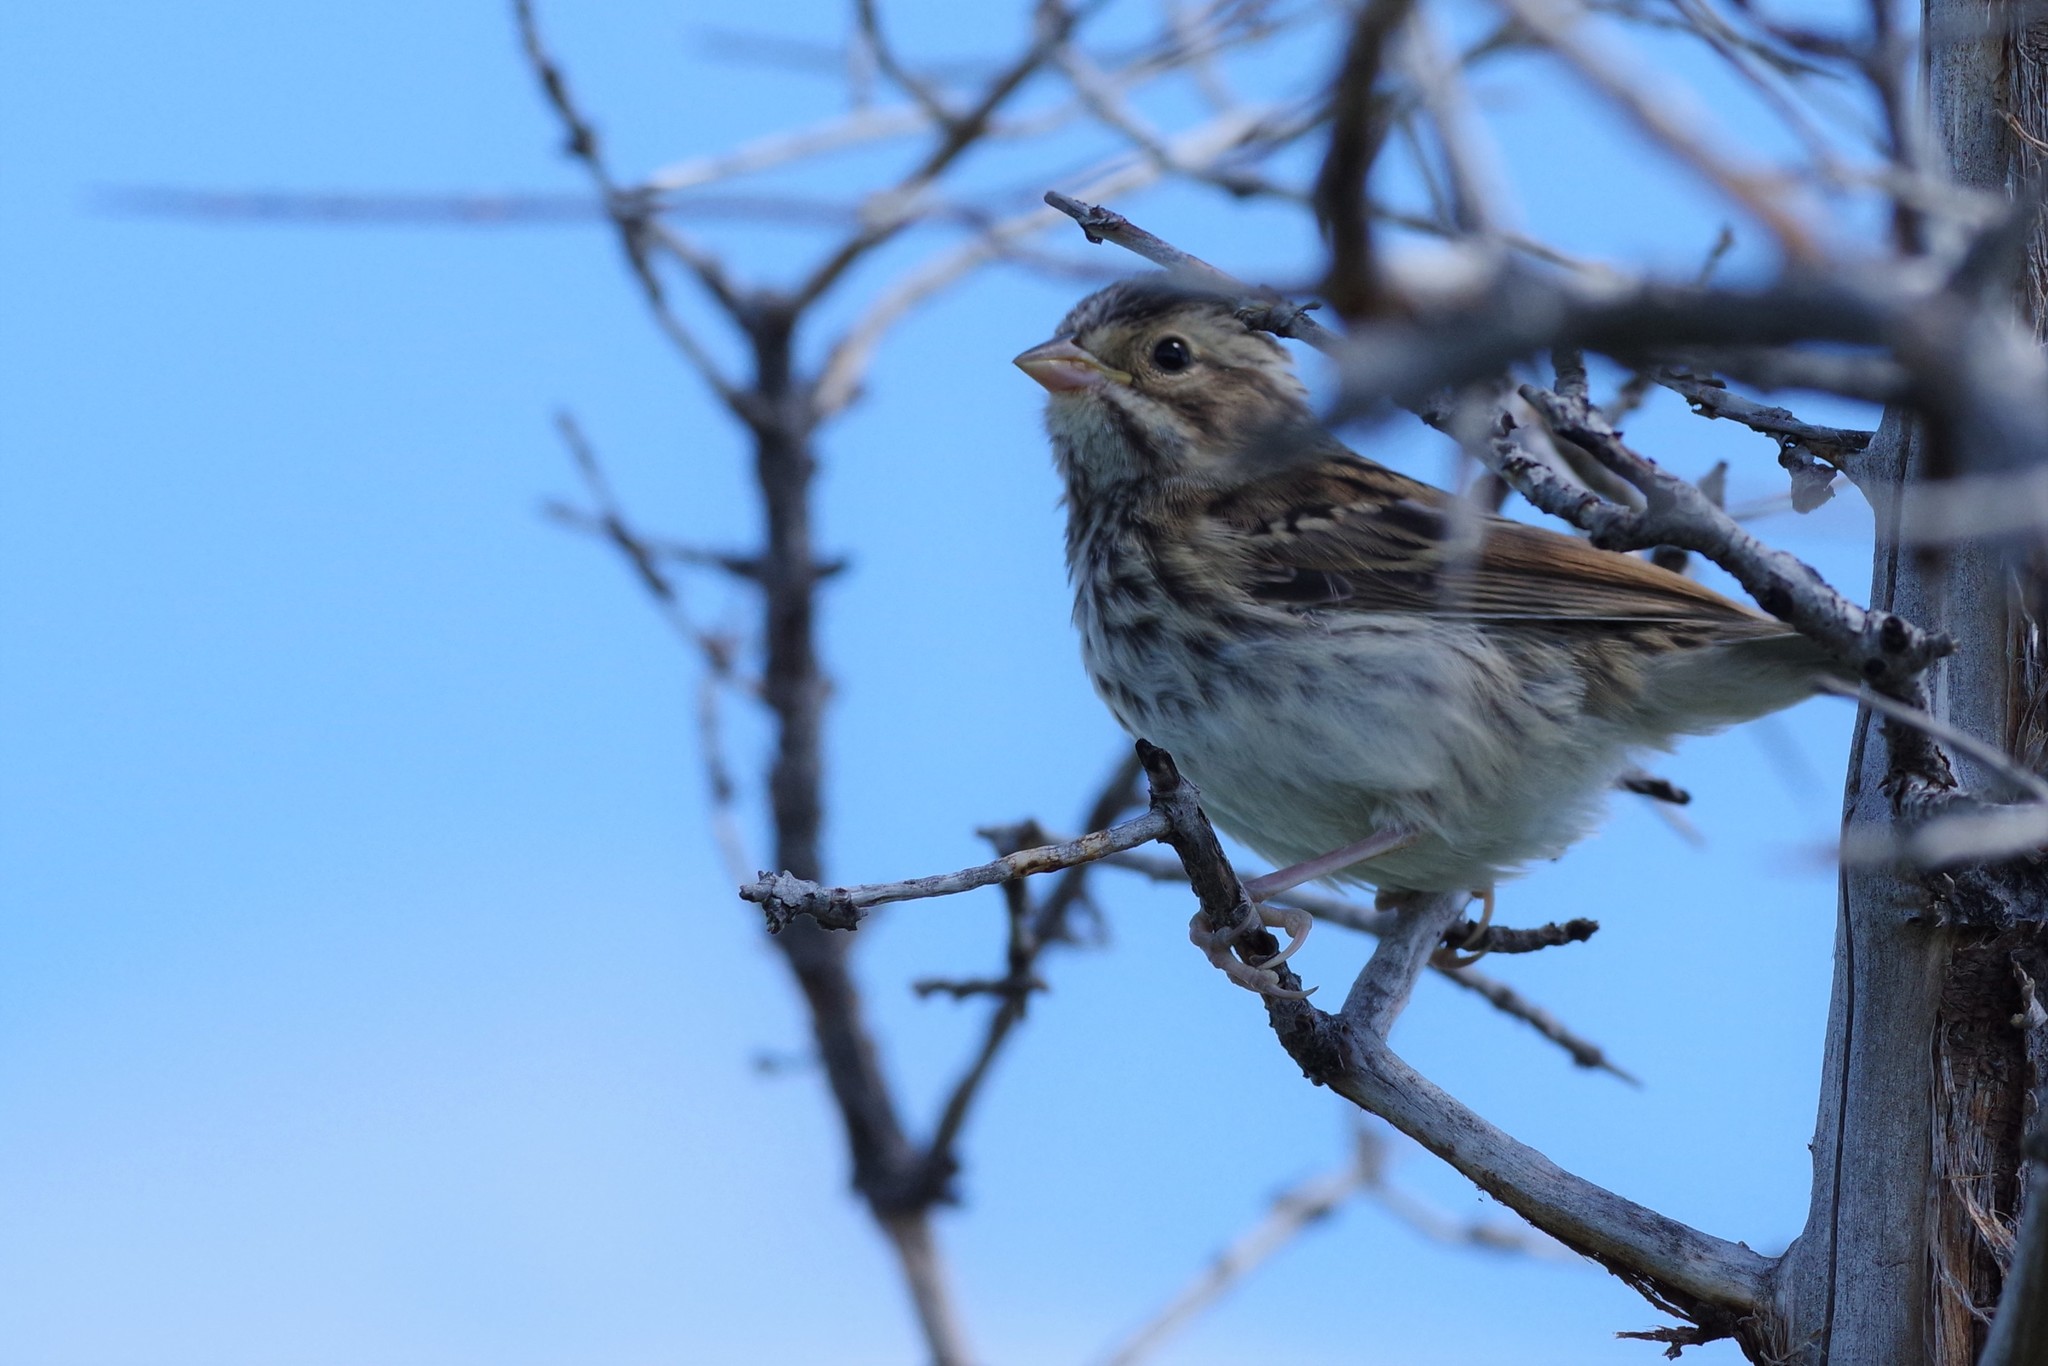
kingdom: Animalia
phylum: Chordata
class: Aves
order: Passeriformes
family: Passerellidae
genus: Passerculus
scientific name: Passerculus sandwichensis
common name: Savannah sparrow
